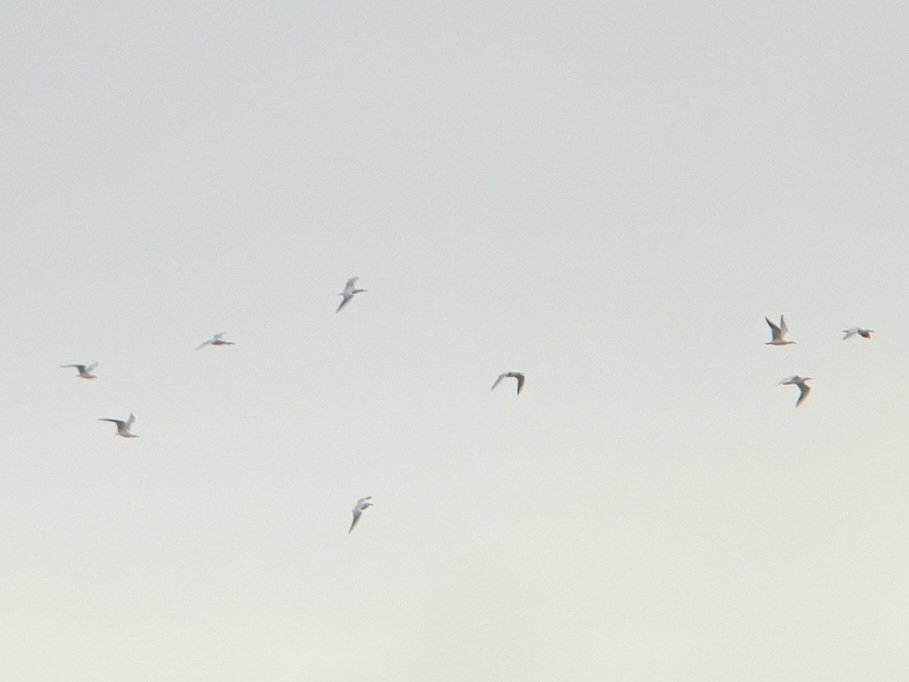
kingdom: Animalia
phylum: Chordata
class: Aves
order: Charadriiformes
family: Laridae
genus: Chroicocephalus
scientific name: Chroicocephalus genei
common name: Slender-billed gull
